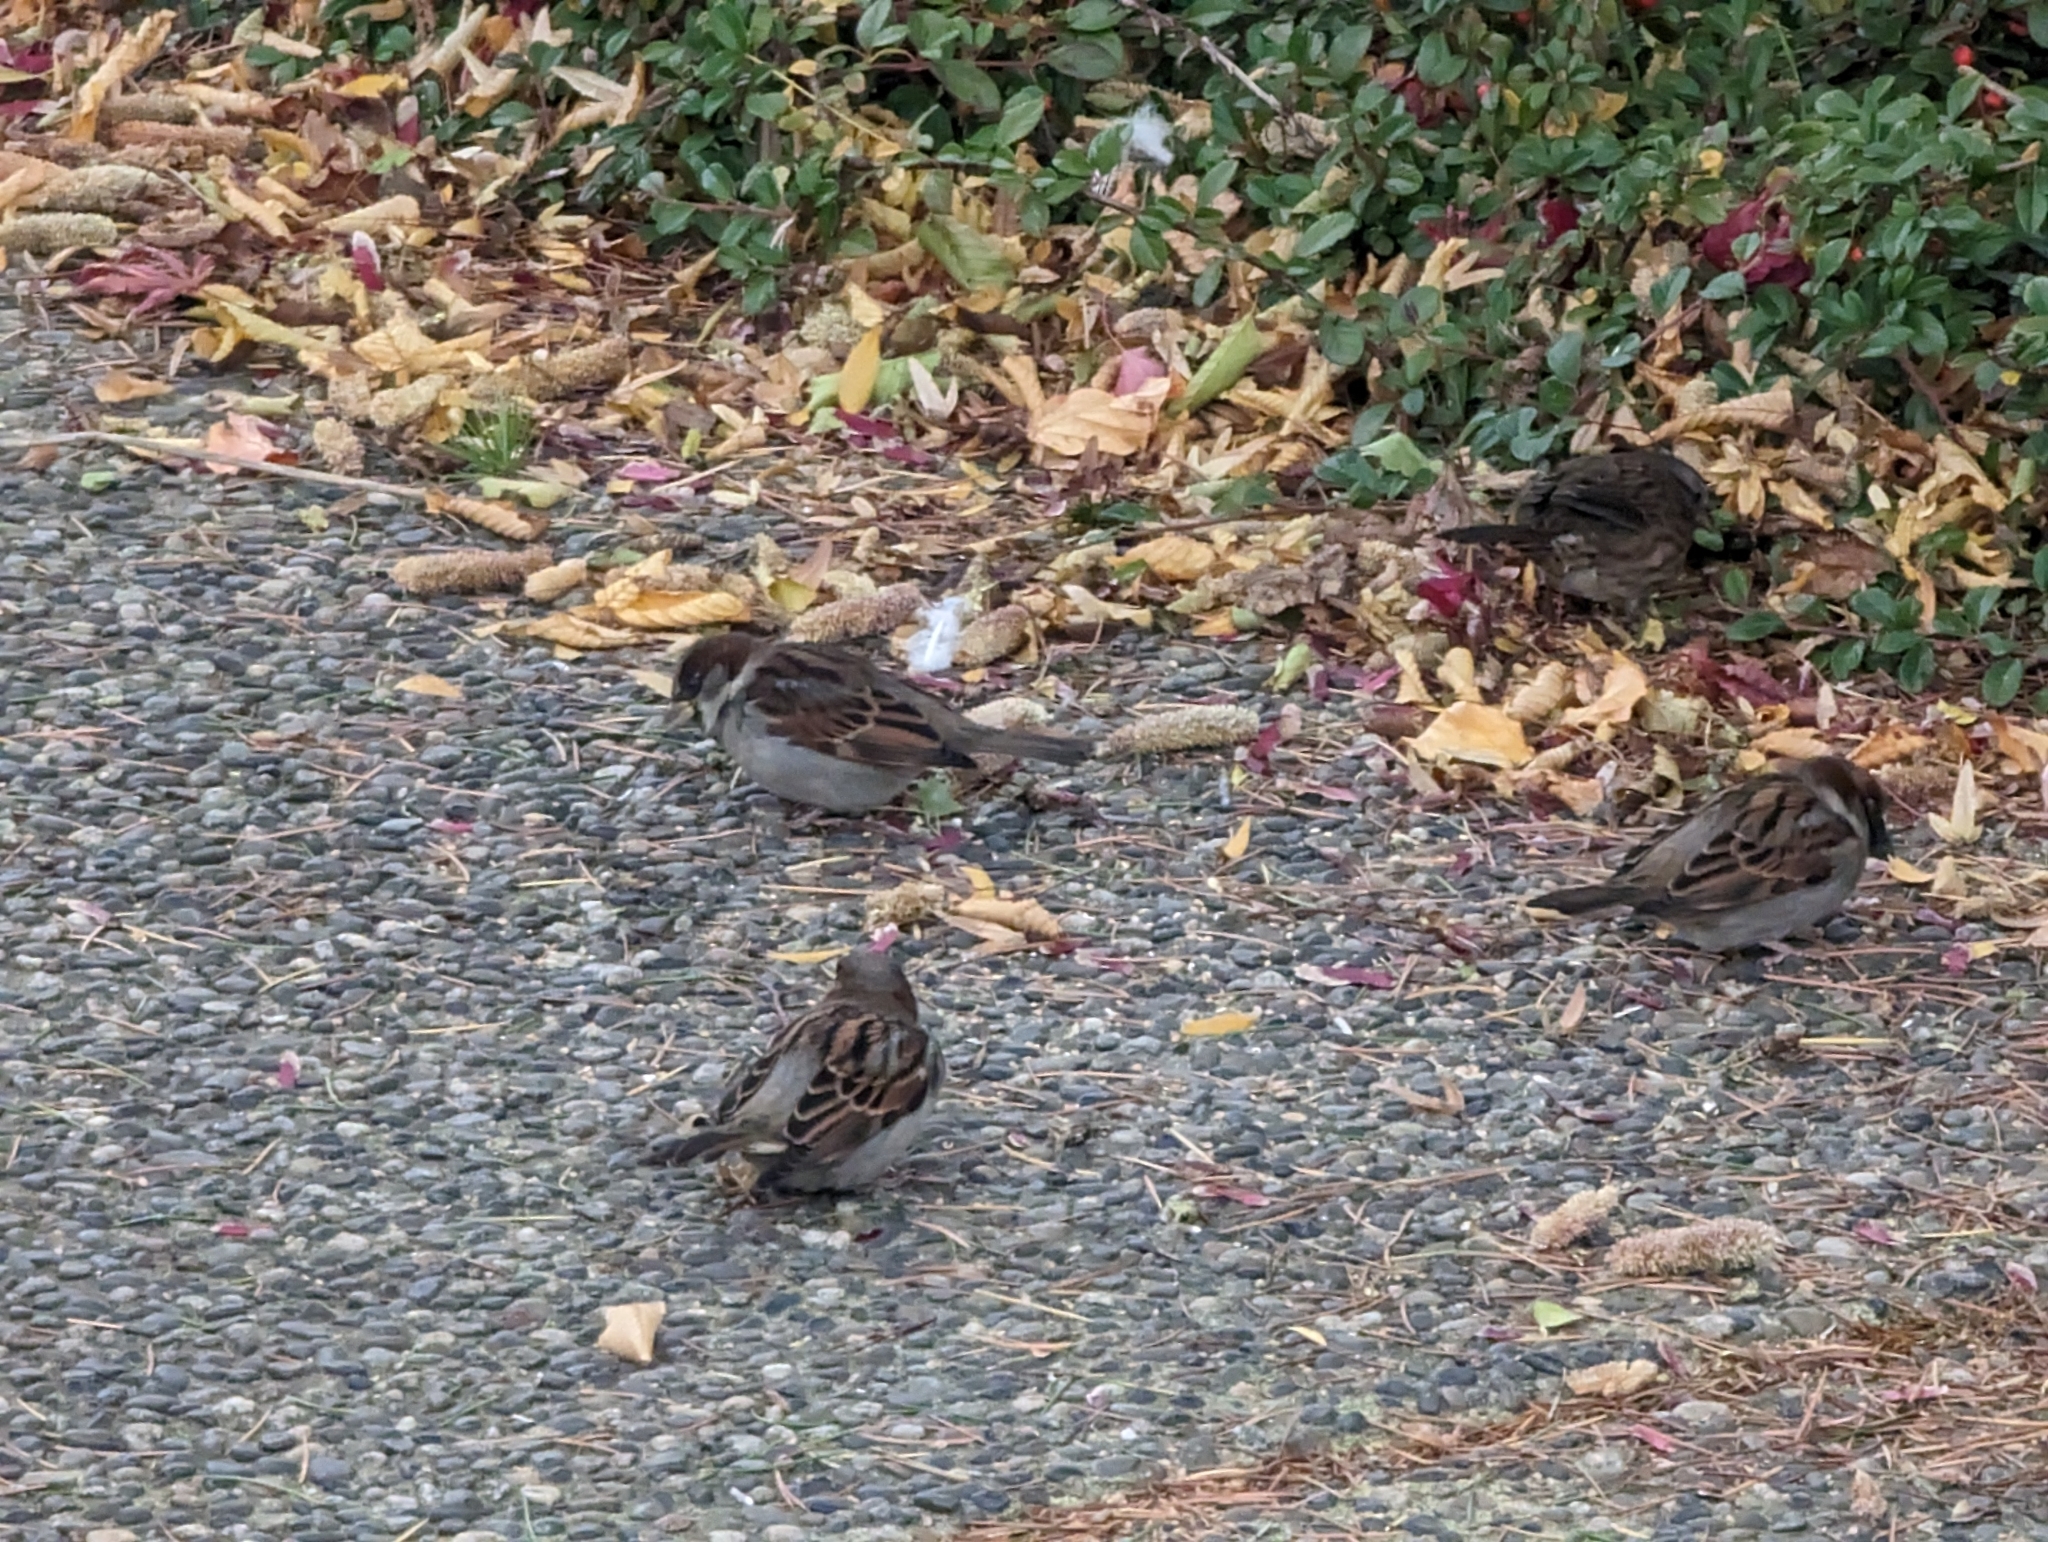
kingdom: Animalia
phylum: Chordata
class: Aves
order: Passeriformes
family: Passeridae
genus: Passer
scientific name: Passer domesticus
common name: House sparrow
